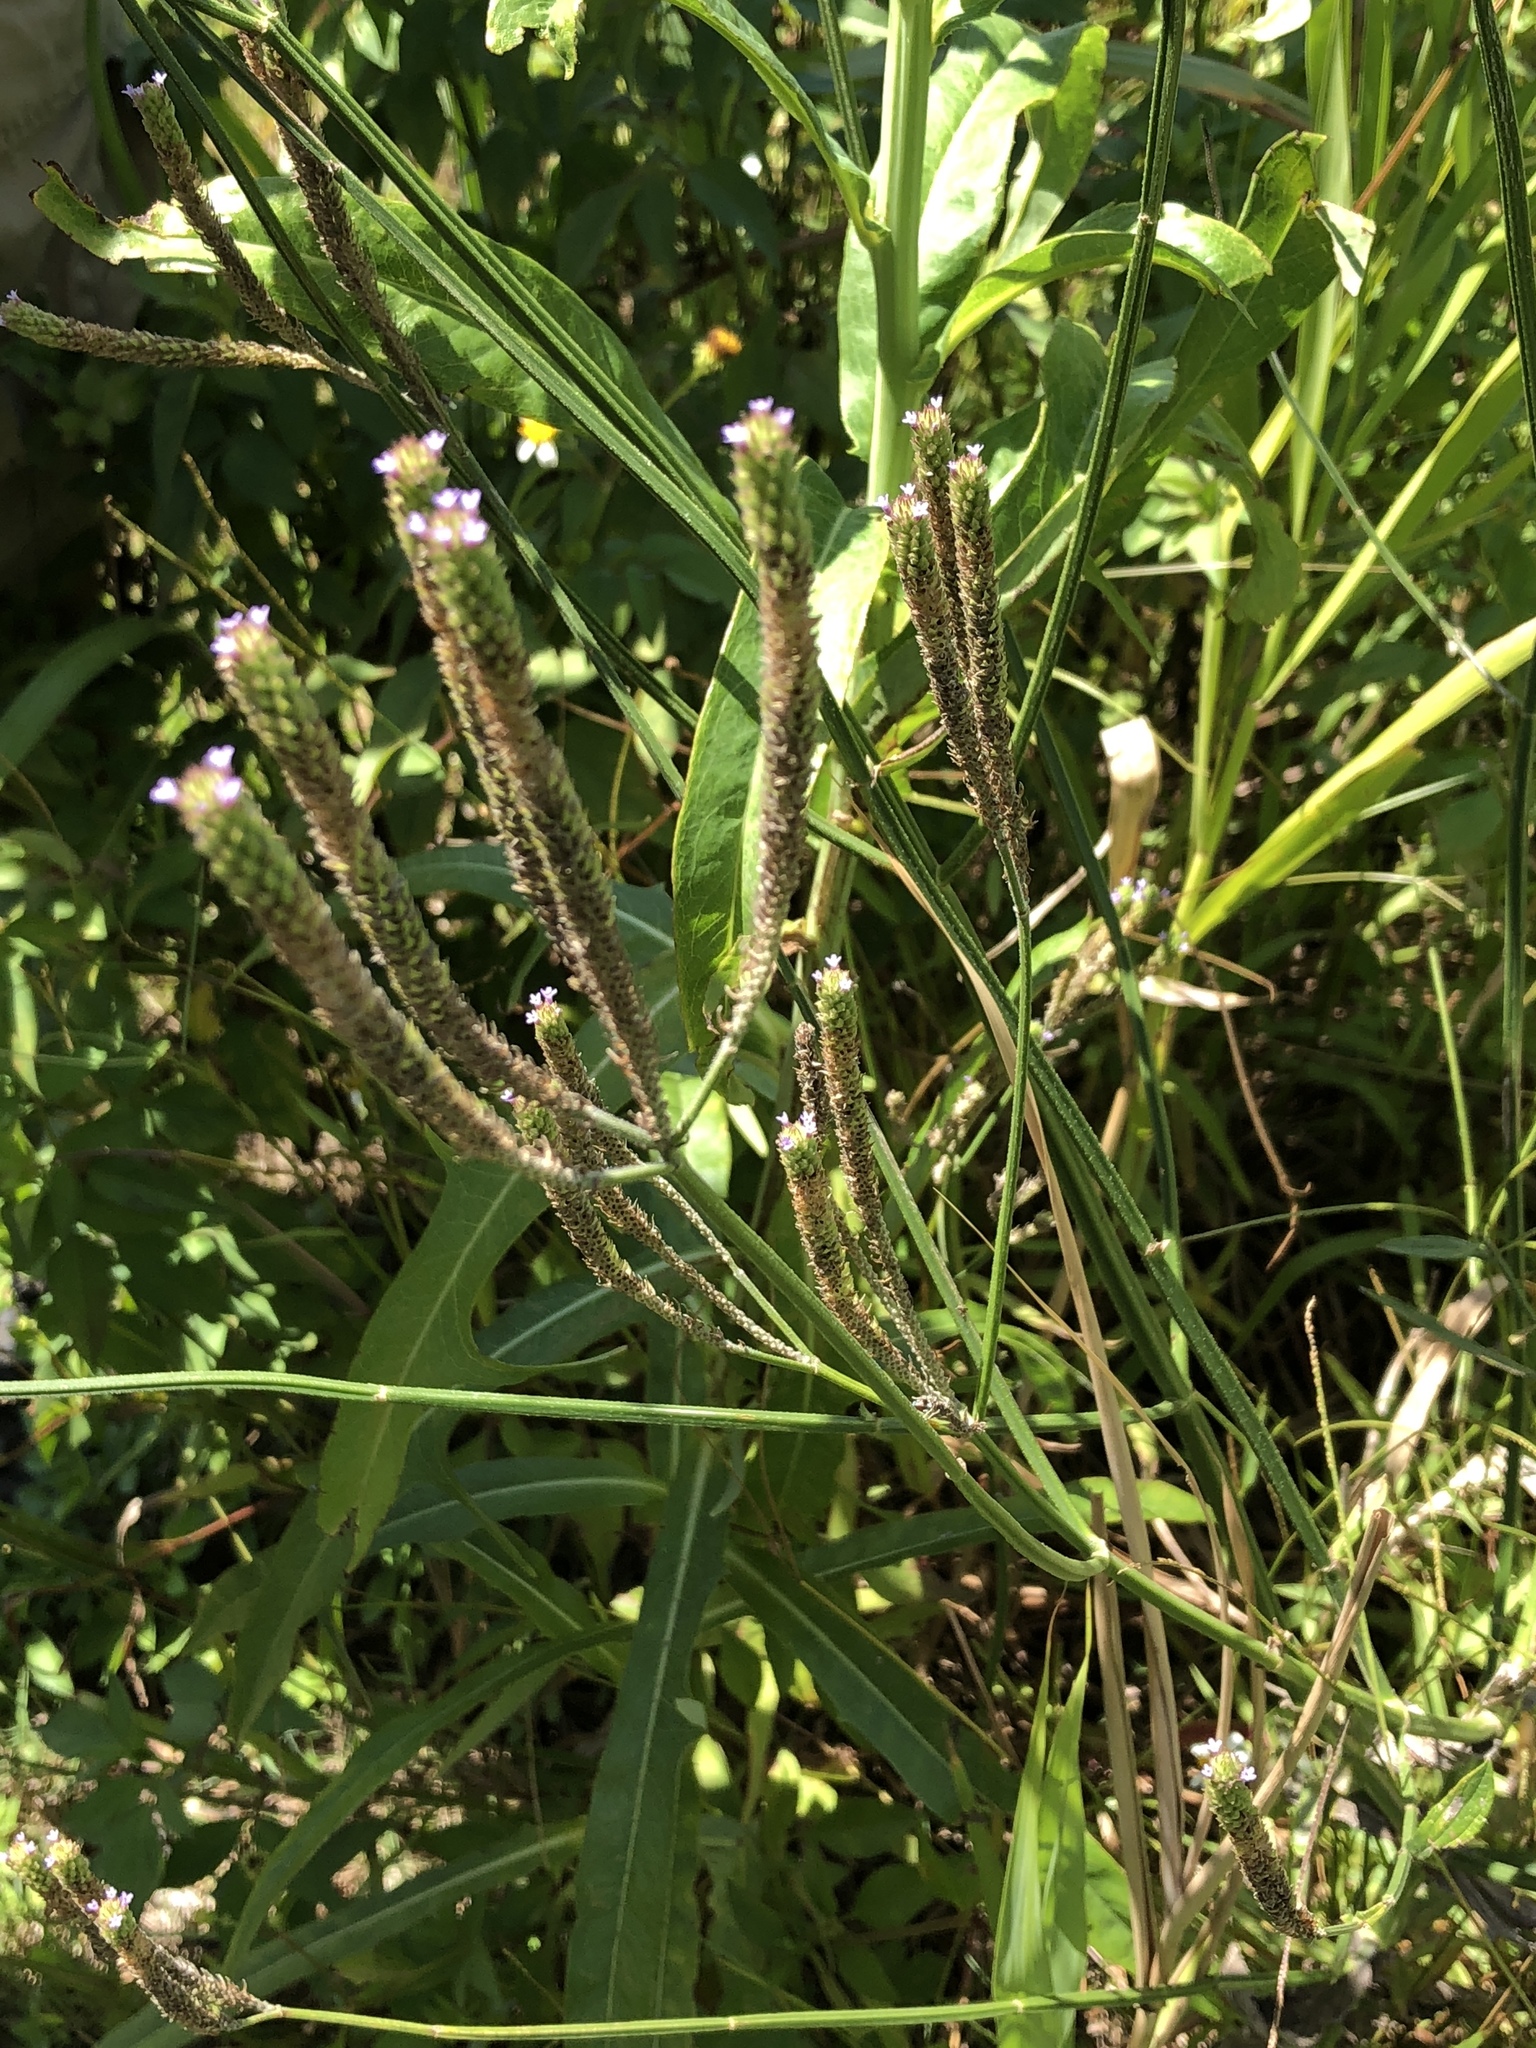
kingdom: Plantae
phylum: Tracheophyta
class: Magnoliopsida
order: Lamiales
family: Verbenaceae
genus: Verbena
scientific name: Verbena brasiliensis
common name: Brazilian vervain
